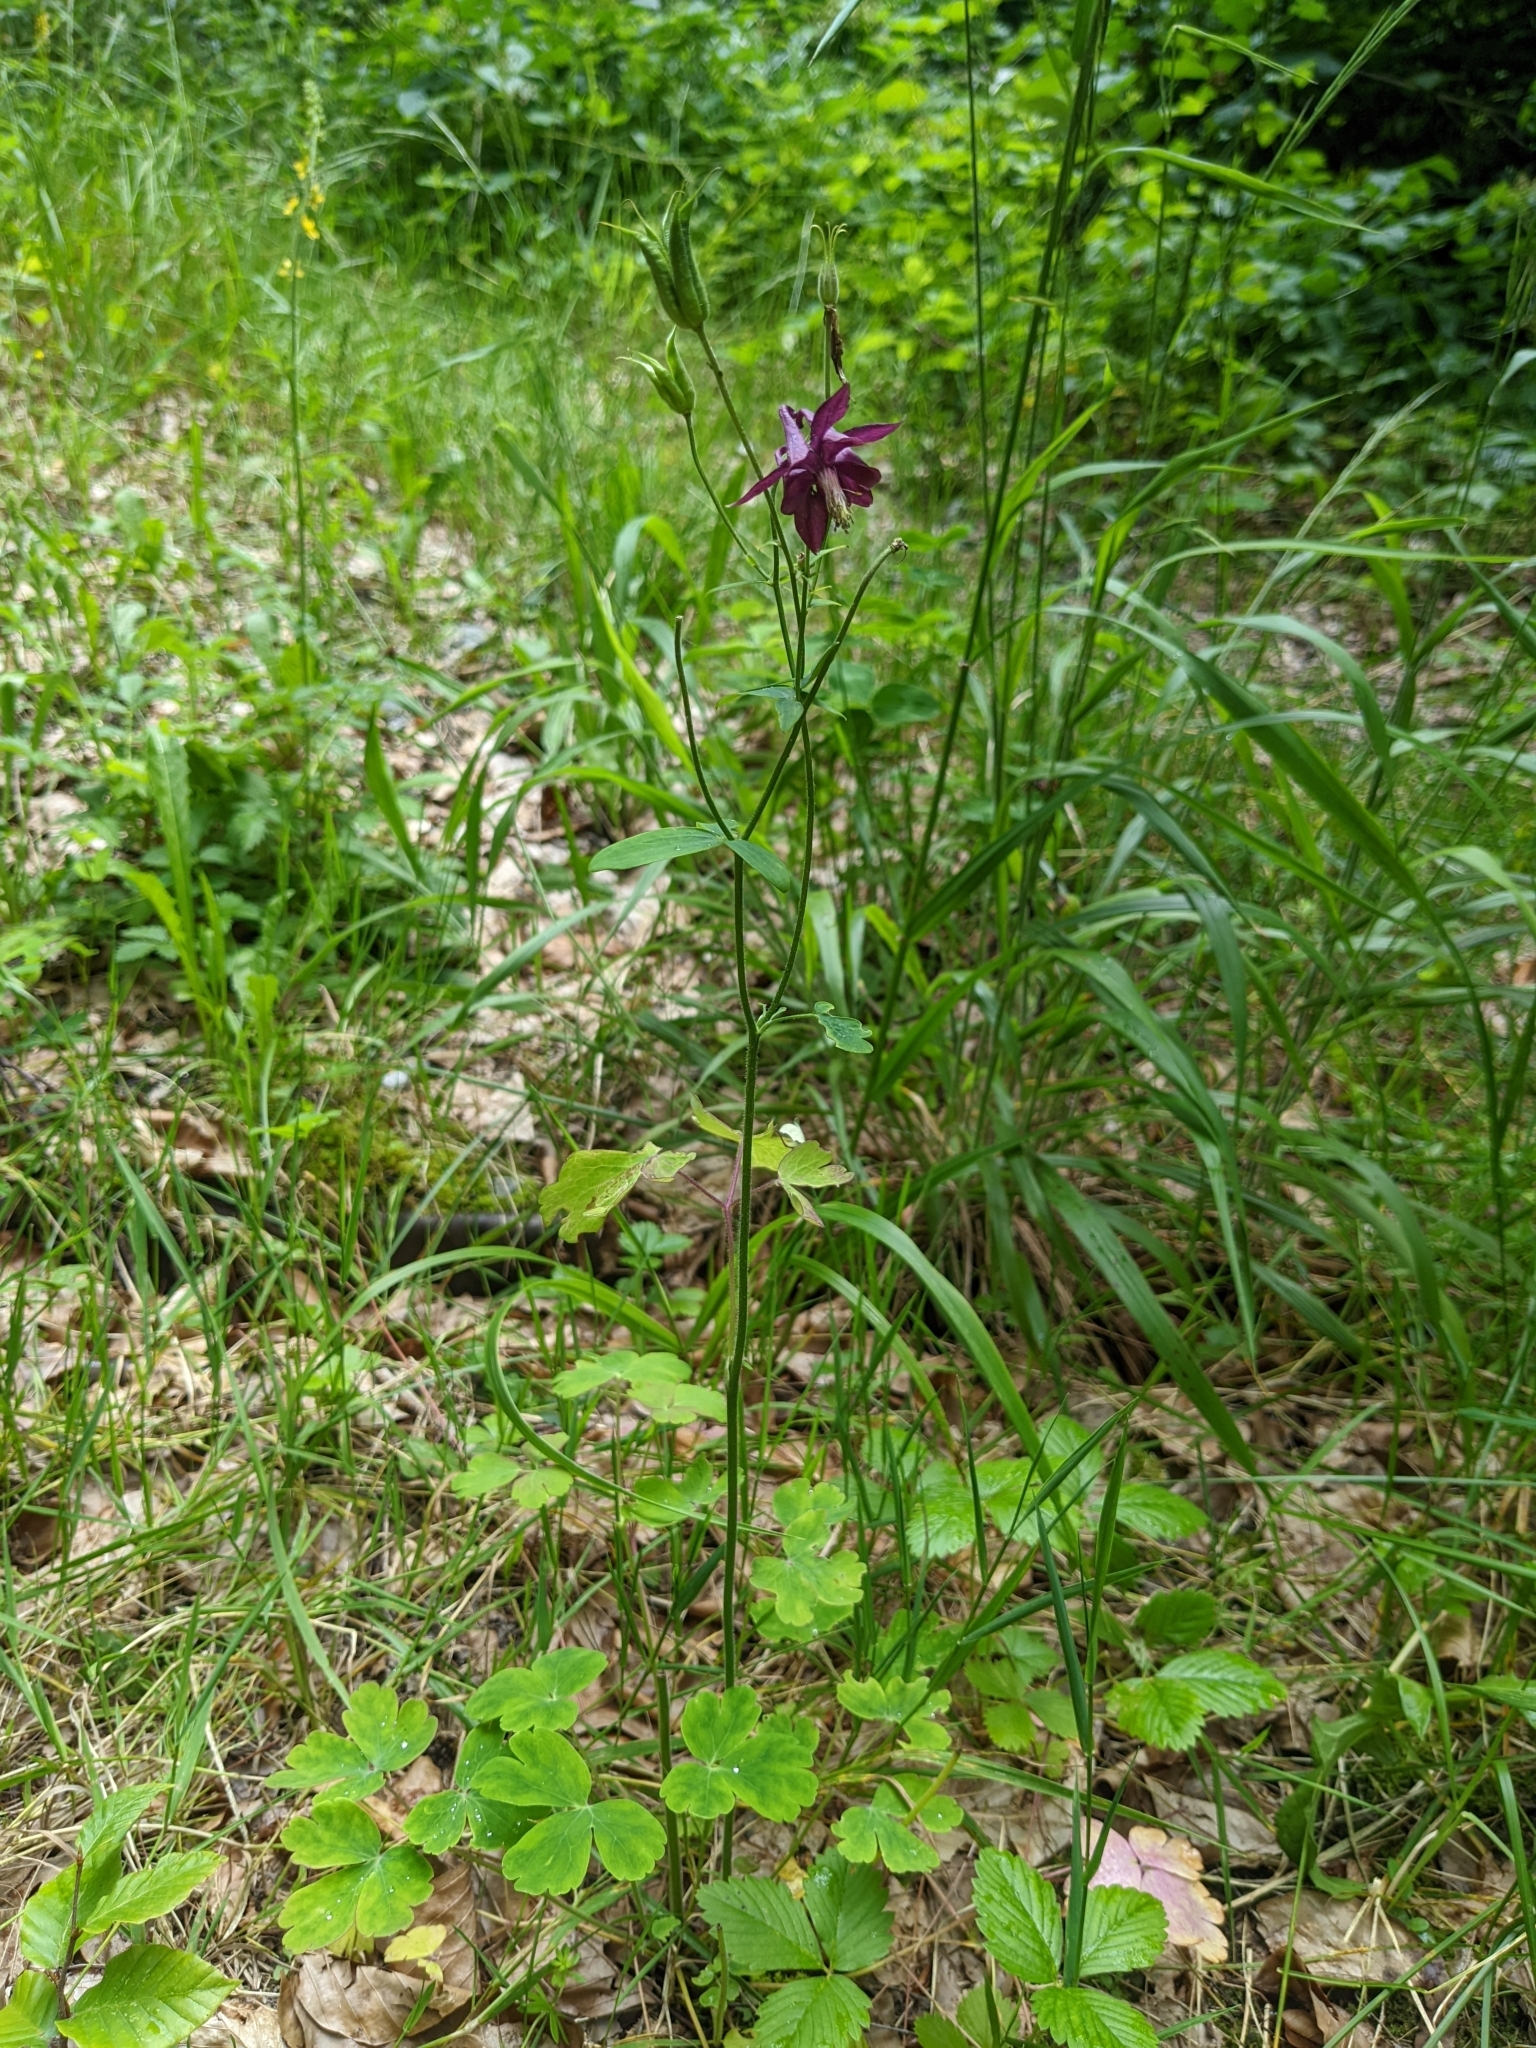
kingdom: Plantae
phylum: Tracheophyta
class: Magnoliopsida
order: Ranunculales
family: Ranunculaceae
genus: Aquilegia
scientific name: Aquilegia atrata
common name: Dark columbine
